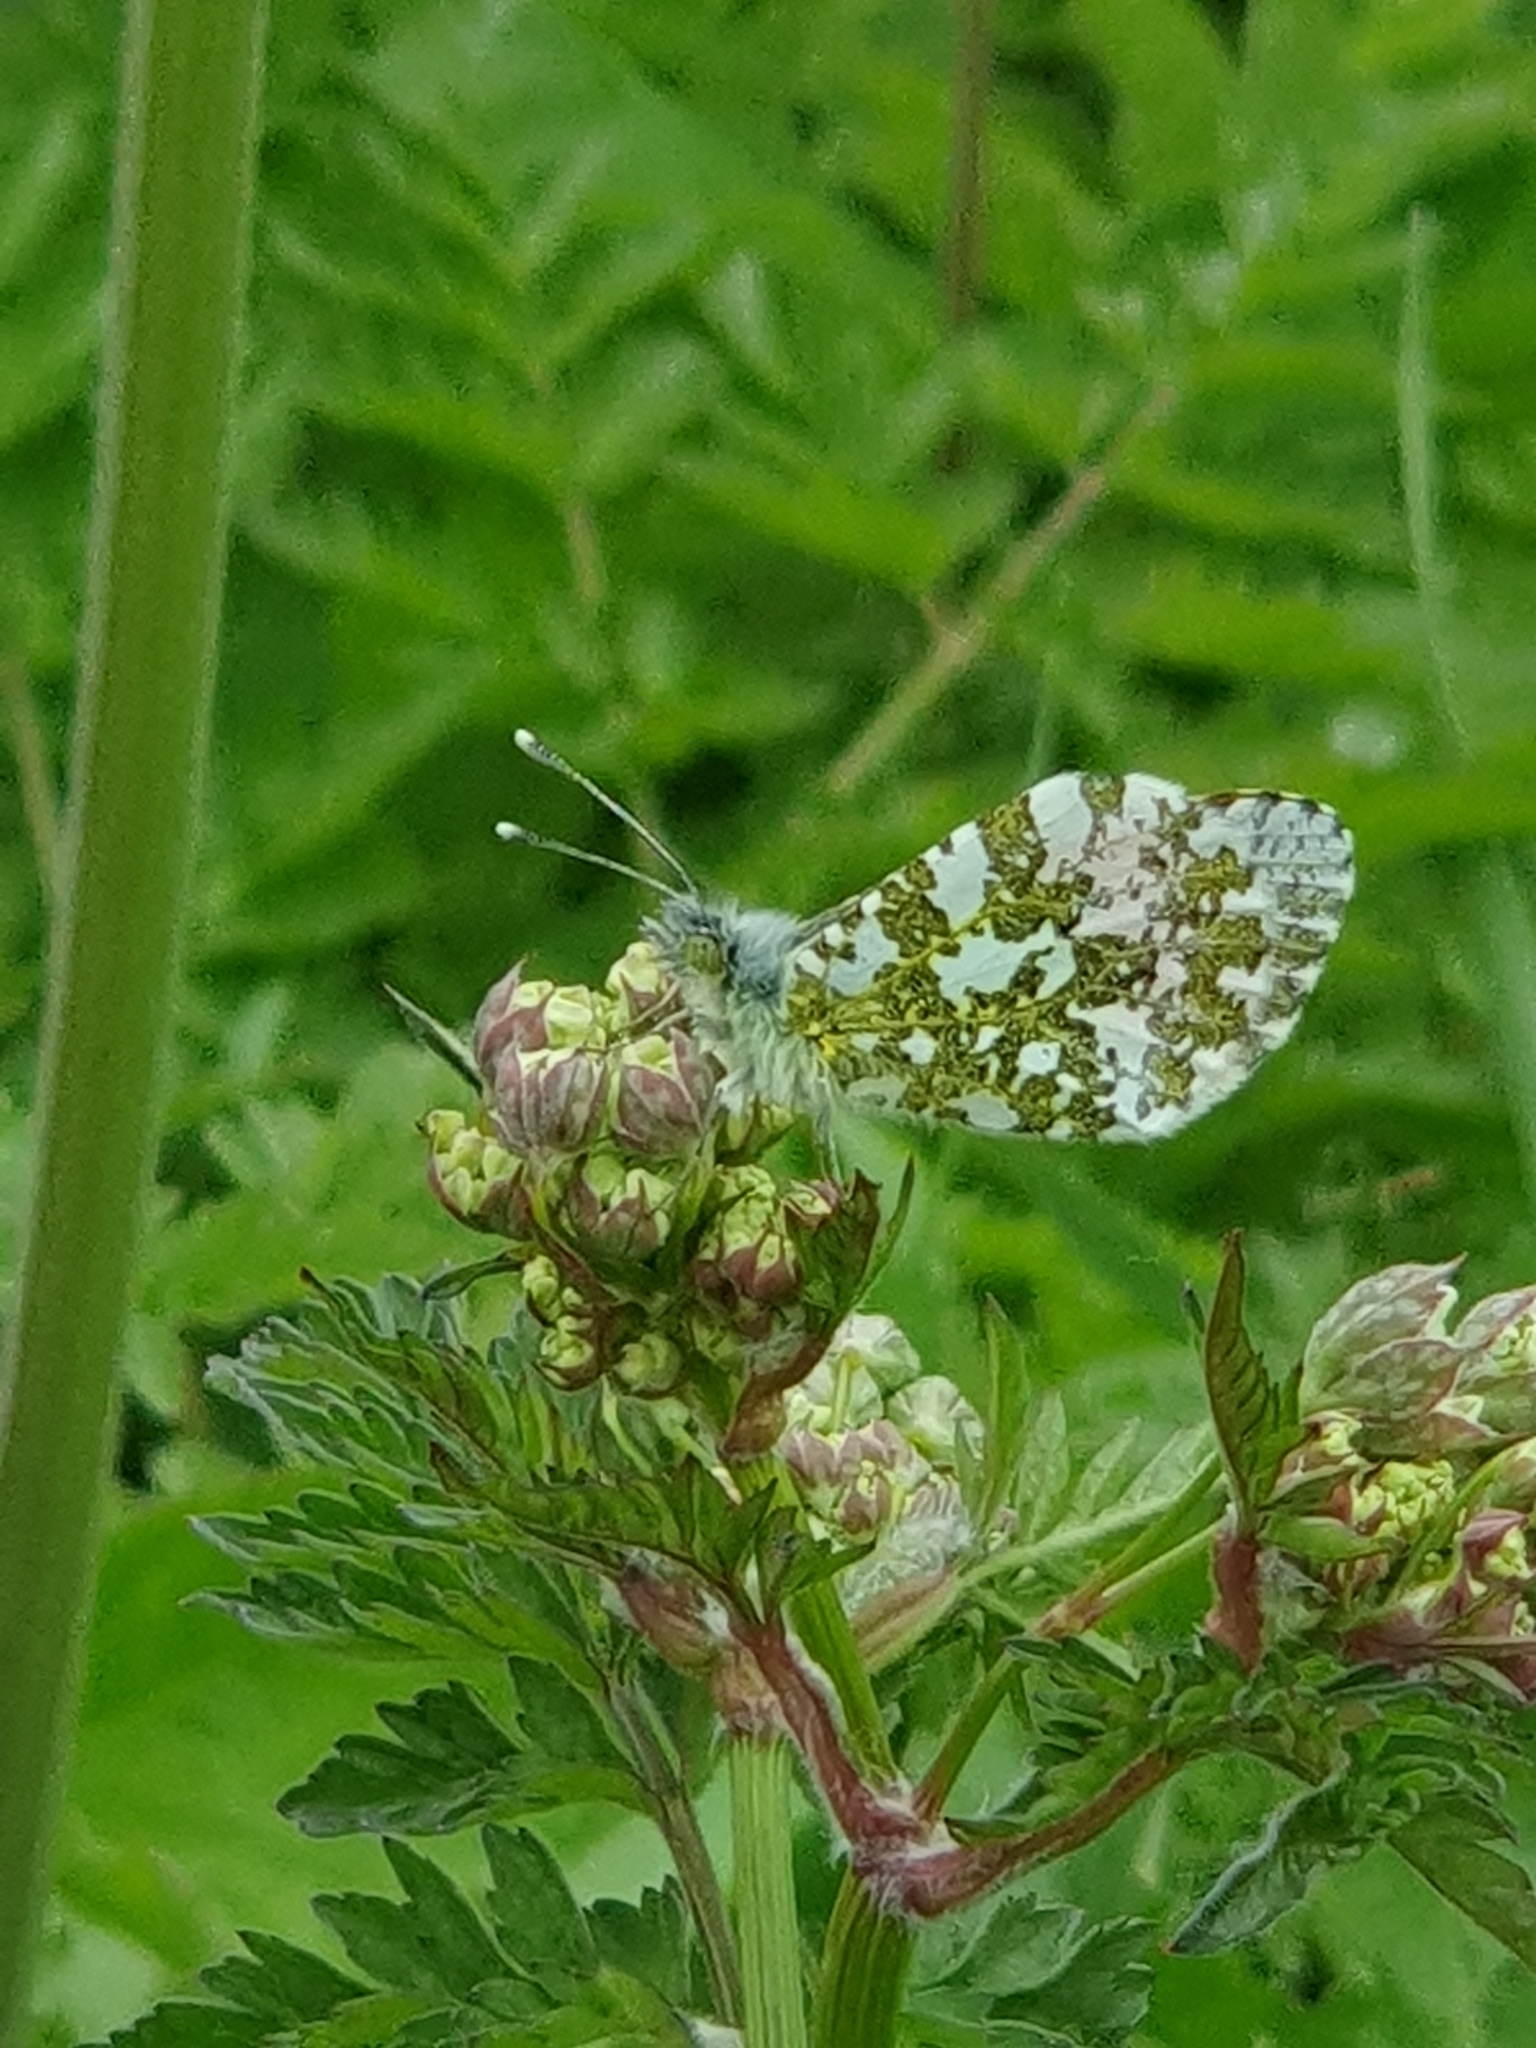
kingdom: Animalia
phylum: Arthropoda
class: Insecta
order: Lepidoptera
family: Pieridae
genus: Anthocharis
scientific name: Anthocharis cardamines
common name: Orange-tip
